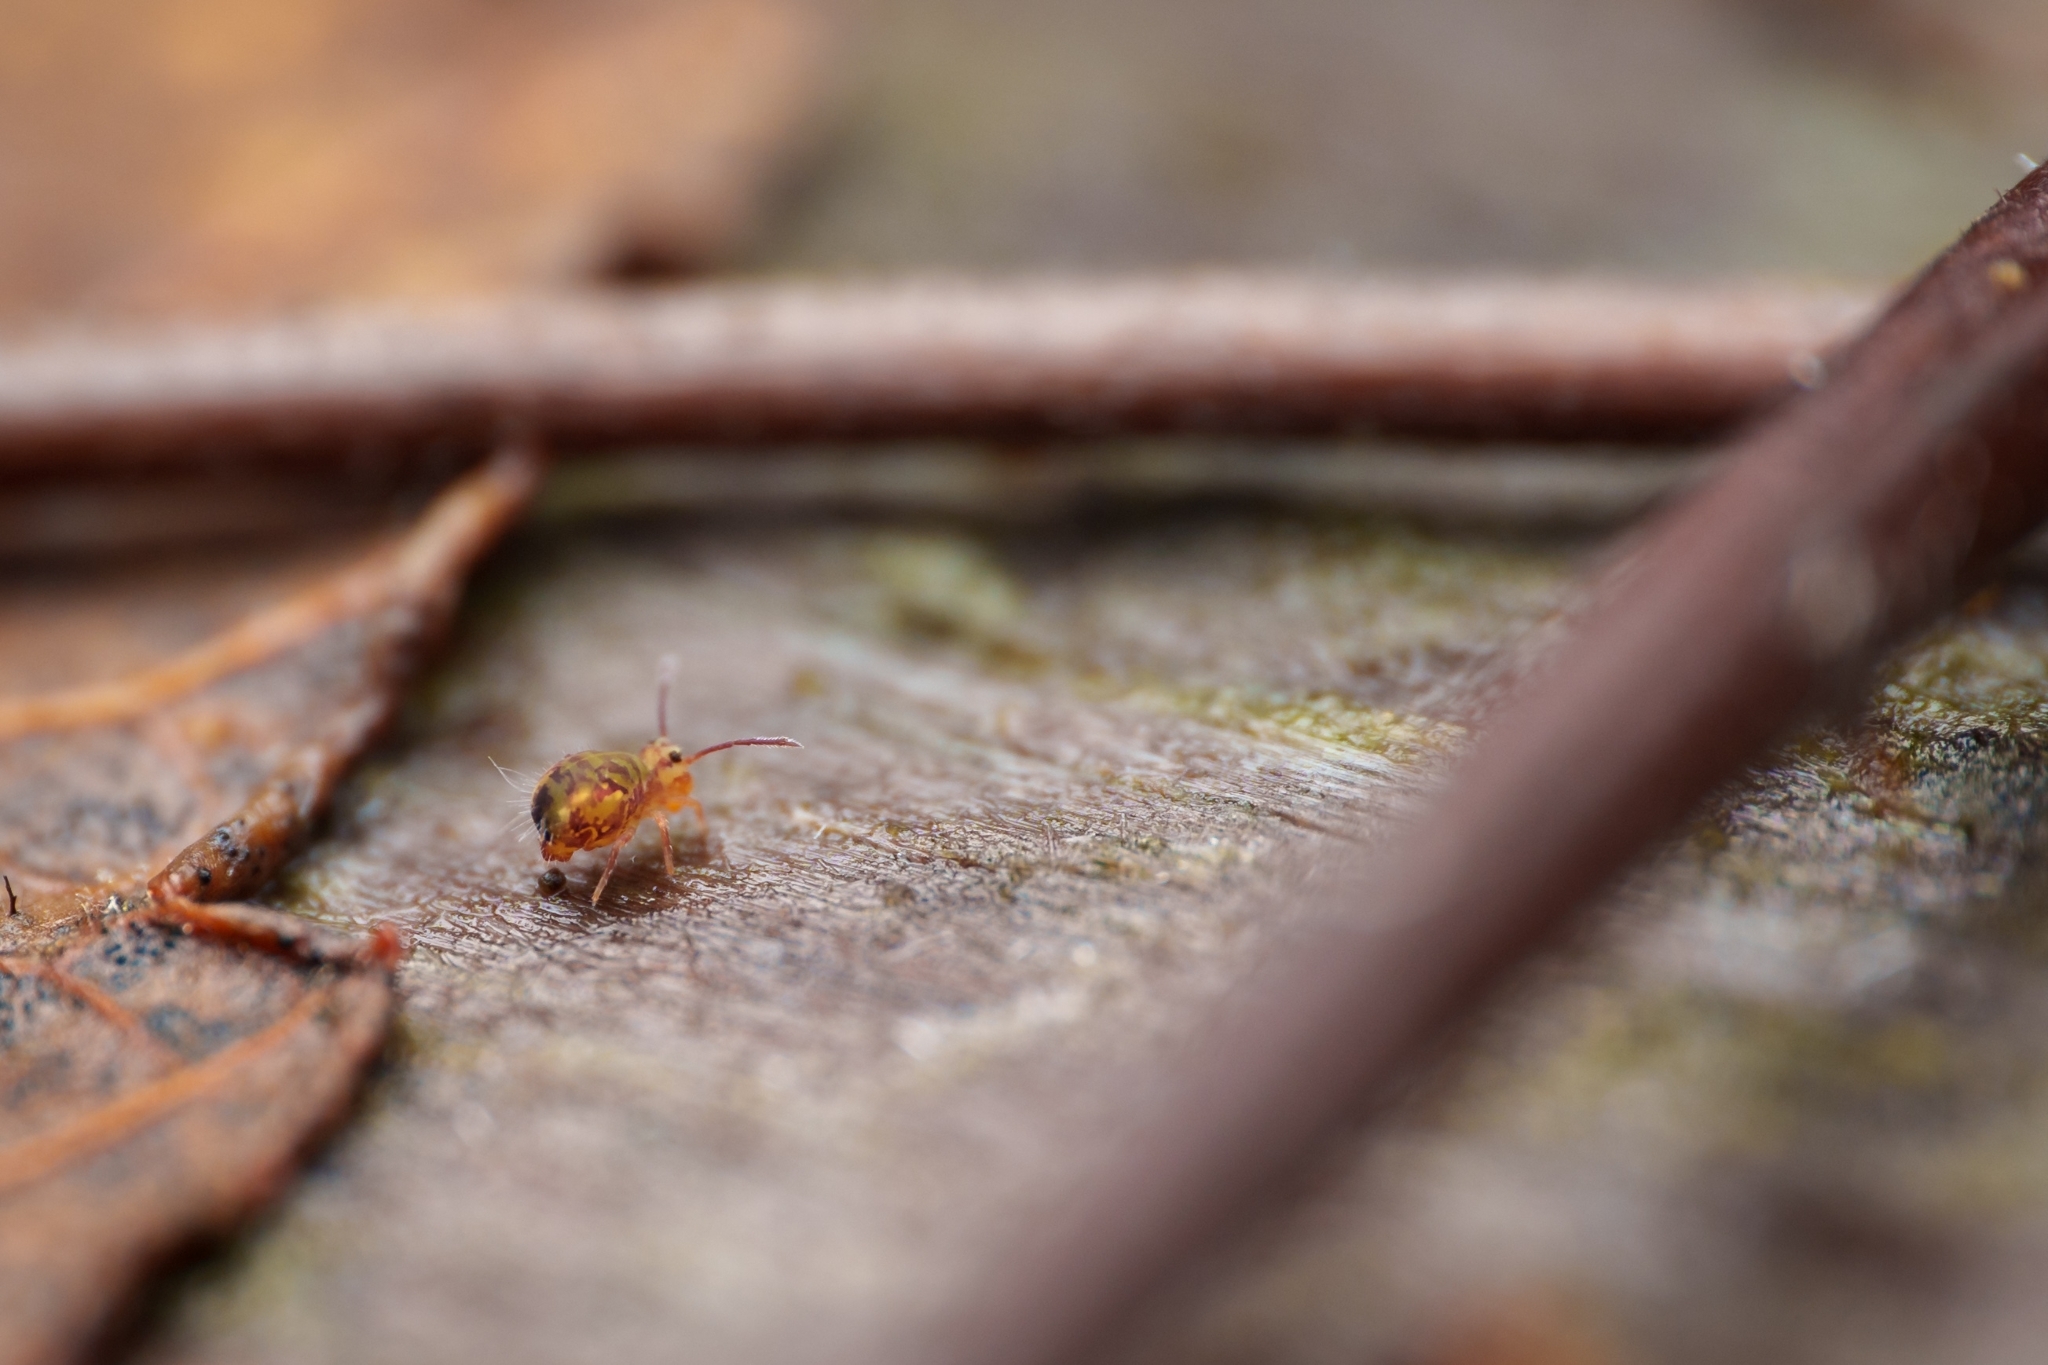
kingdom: Animalia
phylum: Arthropoda
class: Collembola
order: Symphypleona
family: Dicyrtomidae
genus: Dicyrtomina
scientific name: Dicyrtomina minuta
